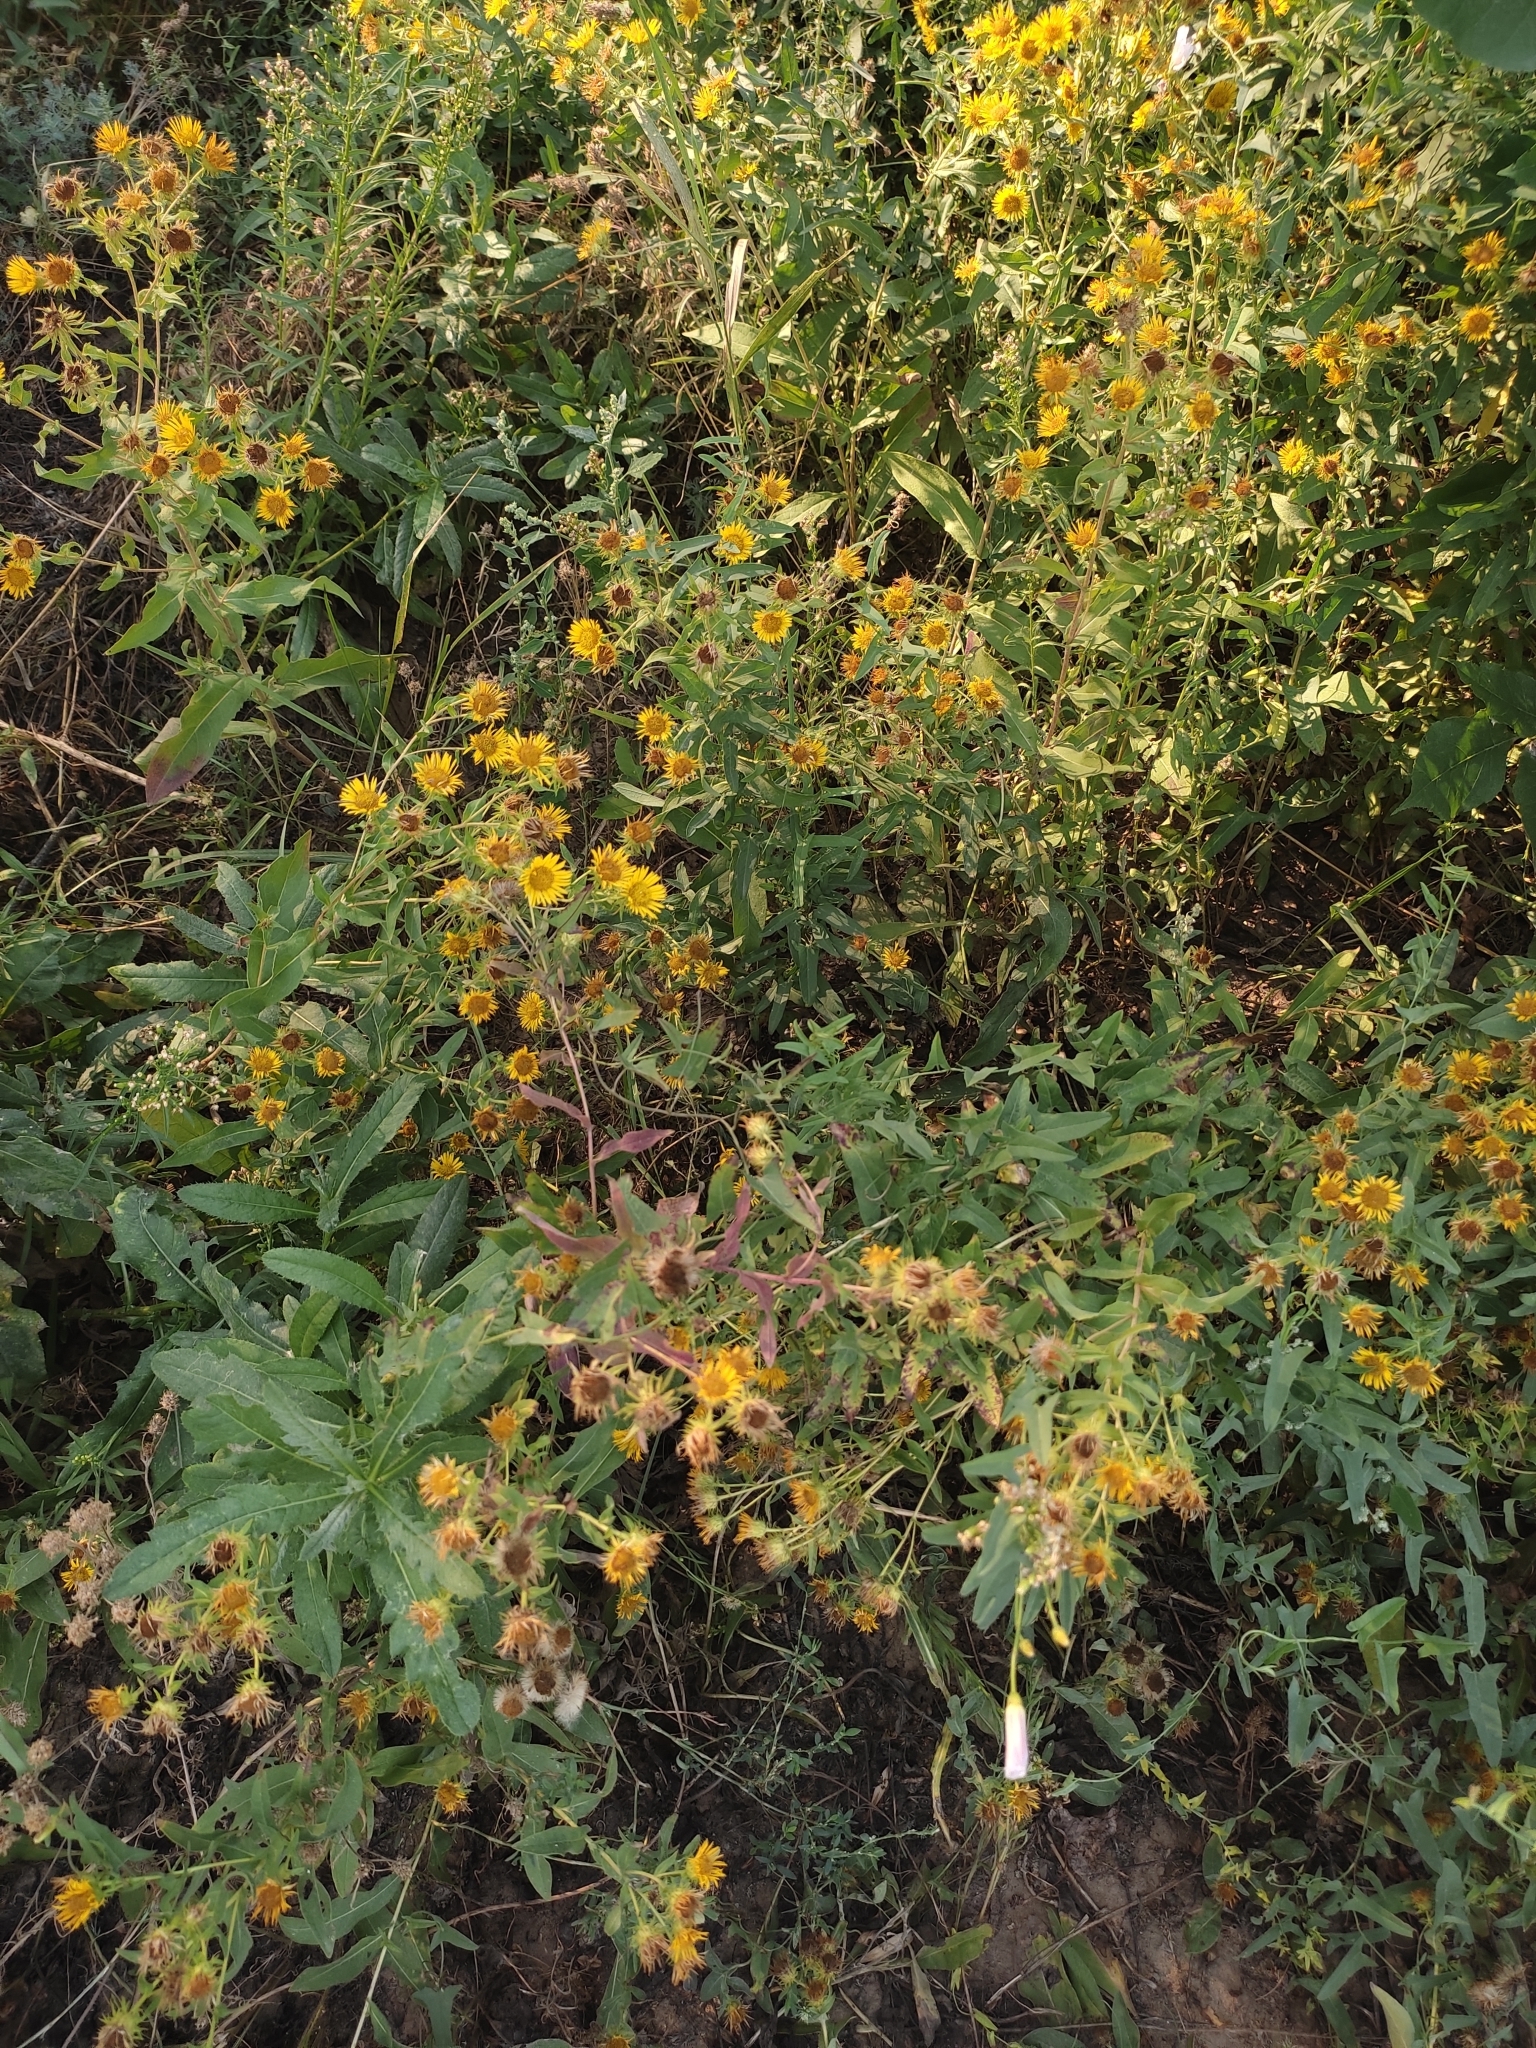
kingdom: Plantae
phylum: Tracheophyta
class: Magnoliopsida
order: Asterales
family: Asteraceae
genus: Pentanema
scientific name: Pentanema britannicum
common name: British elecampane
